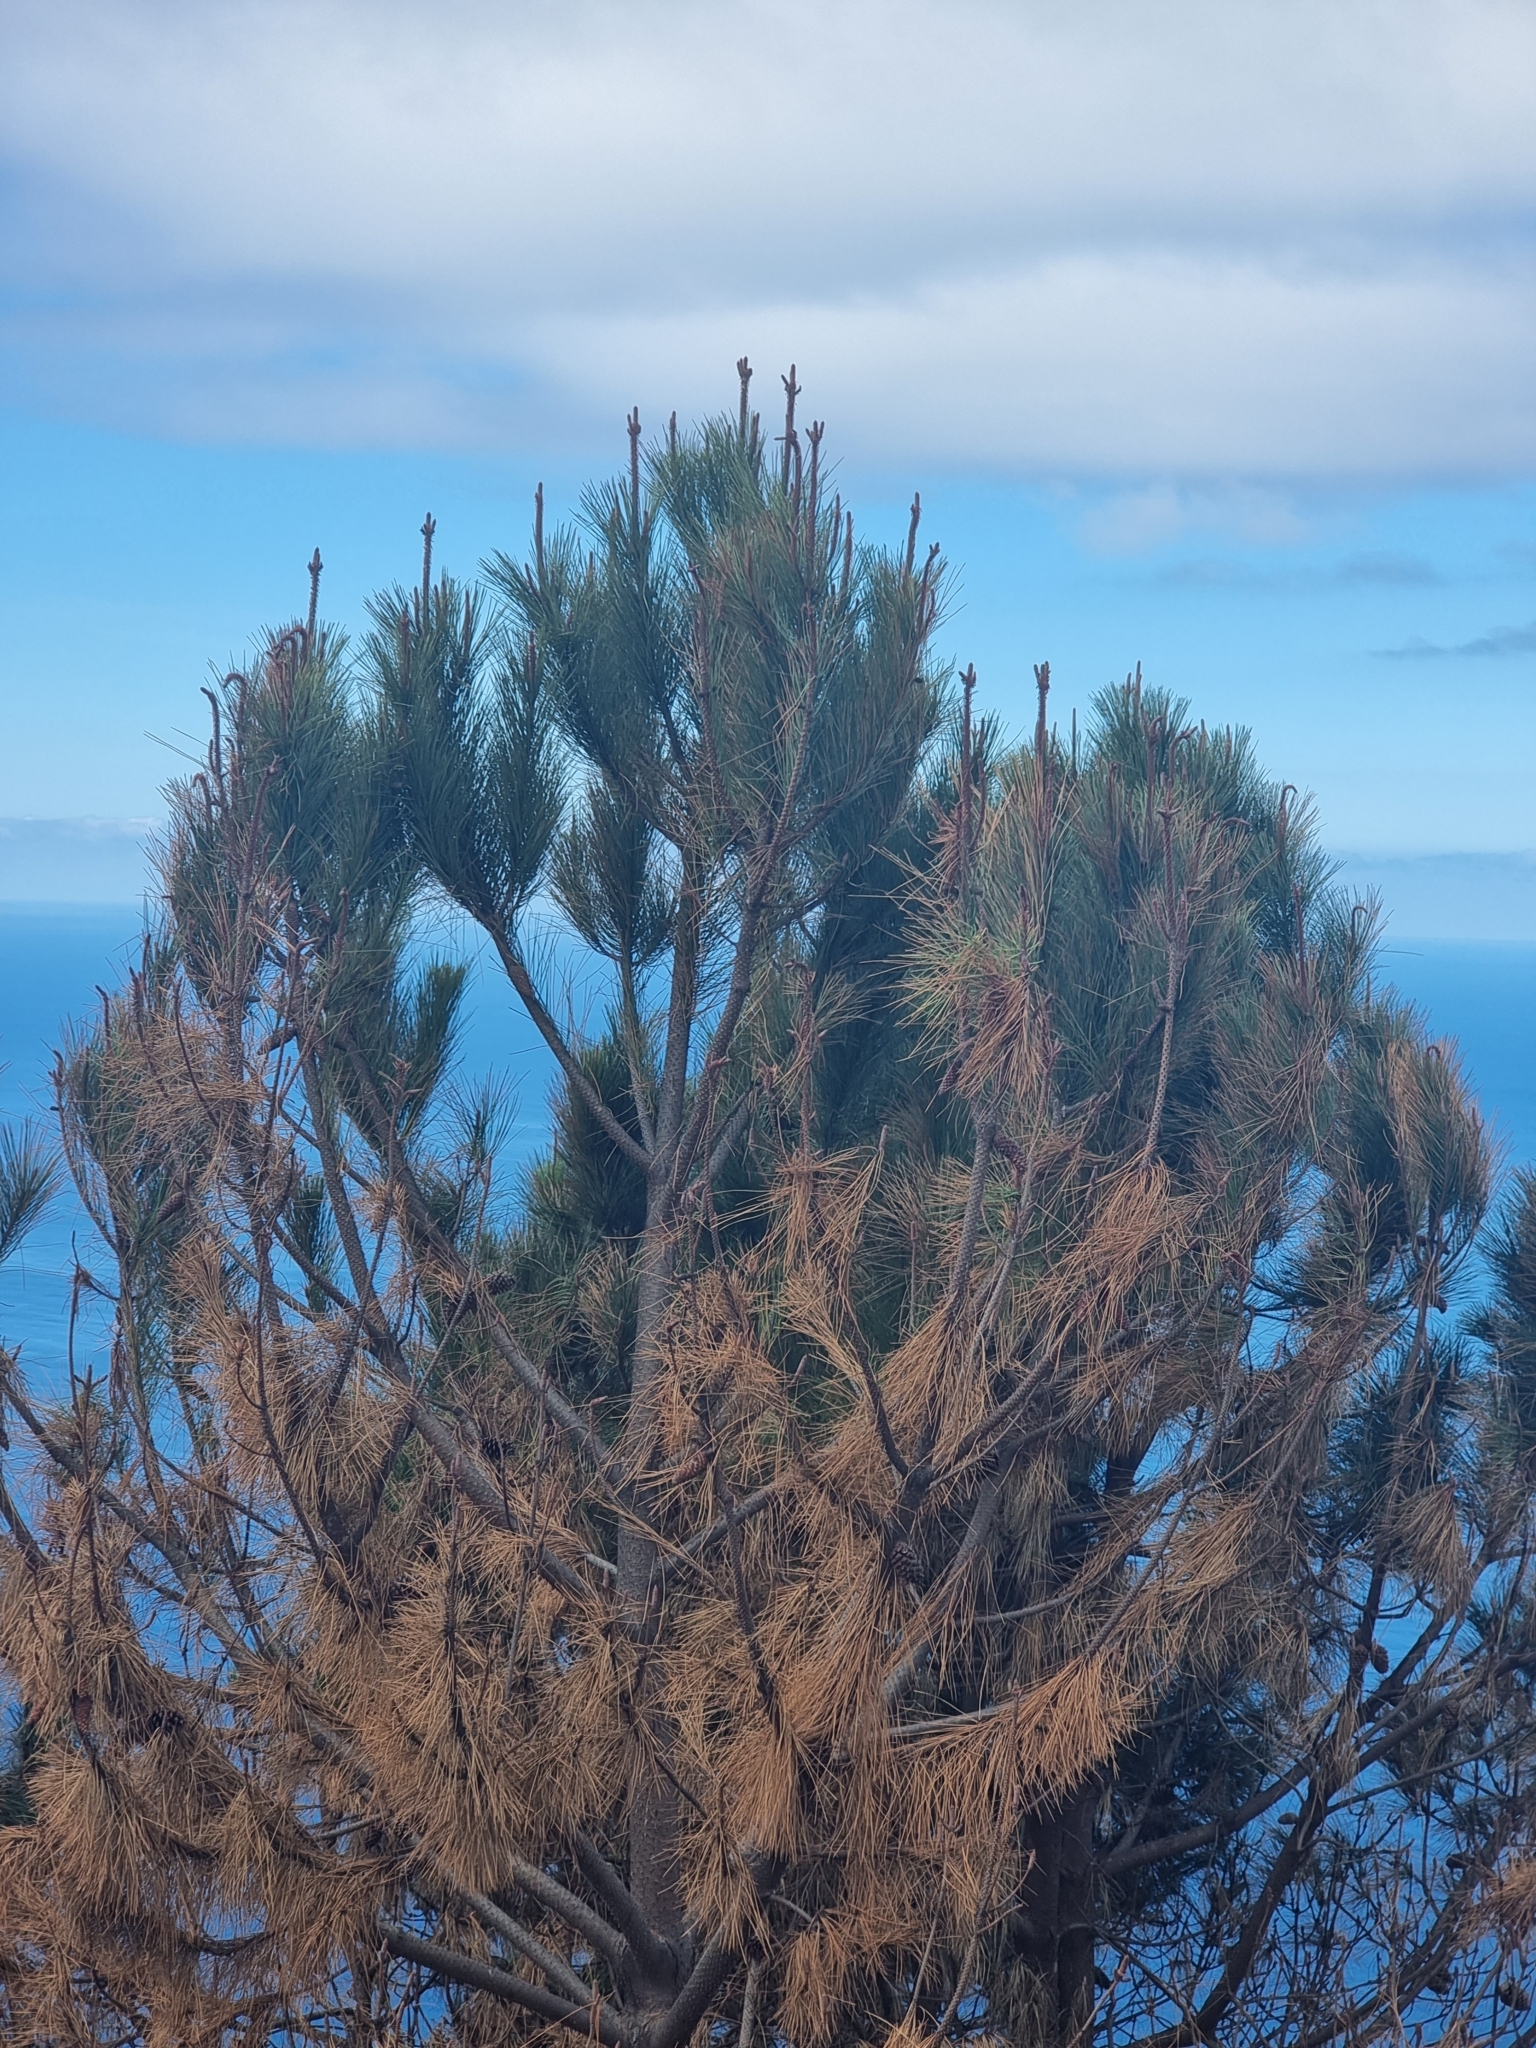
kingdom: Plantae
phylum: Tracheophyta
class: Pinopsida
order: Pinales
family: Pinaceae
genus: Pinus
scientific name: Pinus pinaster
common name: Maritime pine
